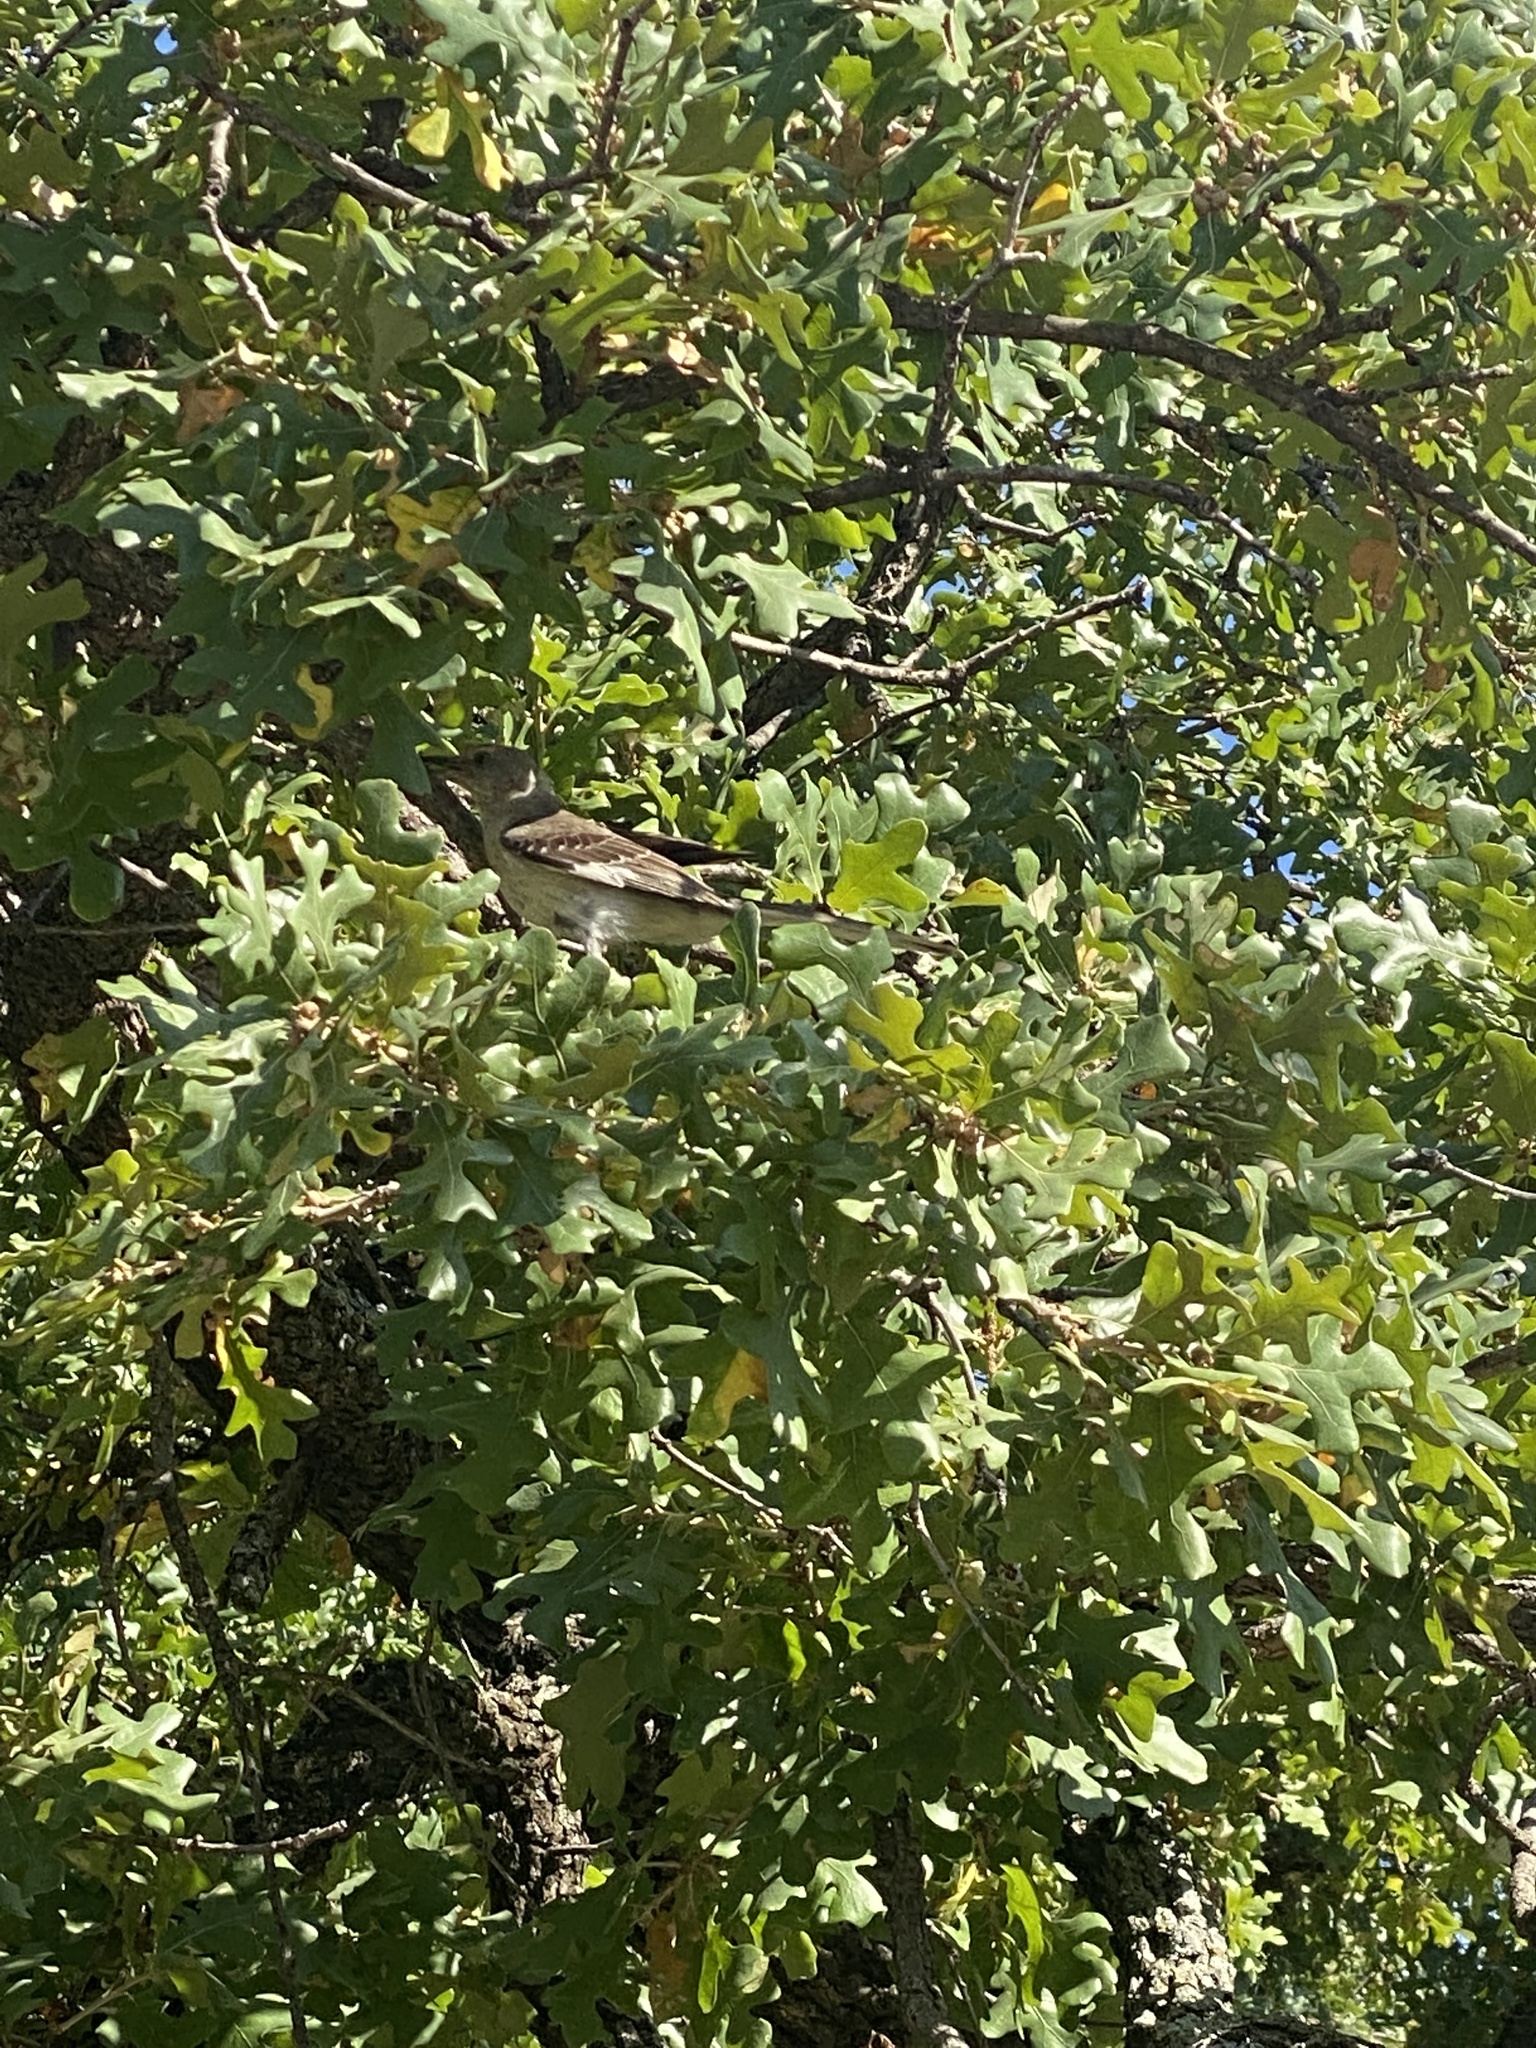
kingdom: Animalia
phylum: Chordata
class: Aves
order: Passeriformes
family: Mimidae
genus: Mimus
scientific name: Mimus polyglottos
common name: Northern mockingbird
